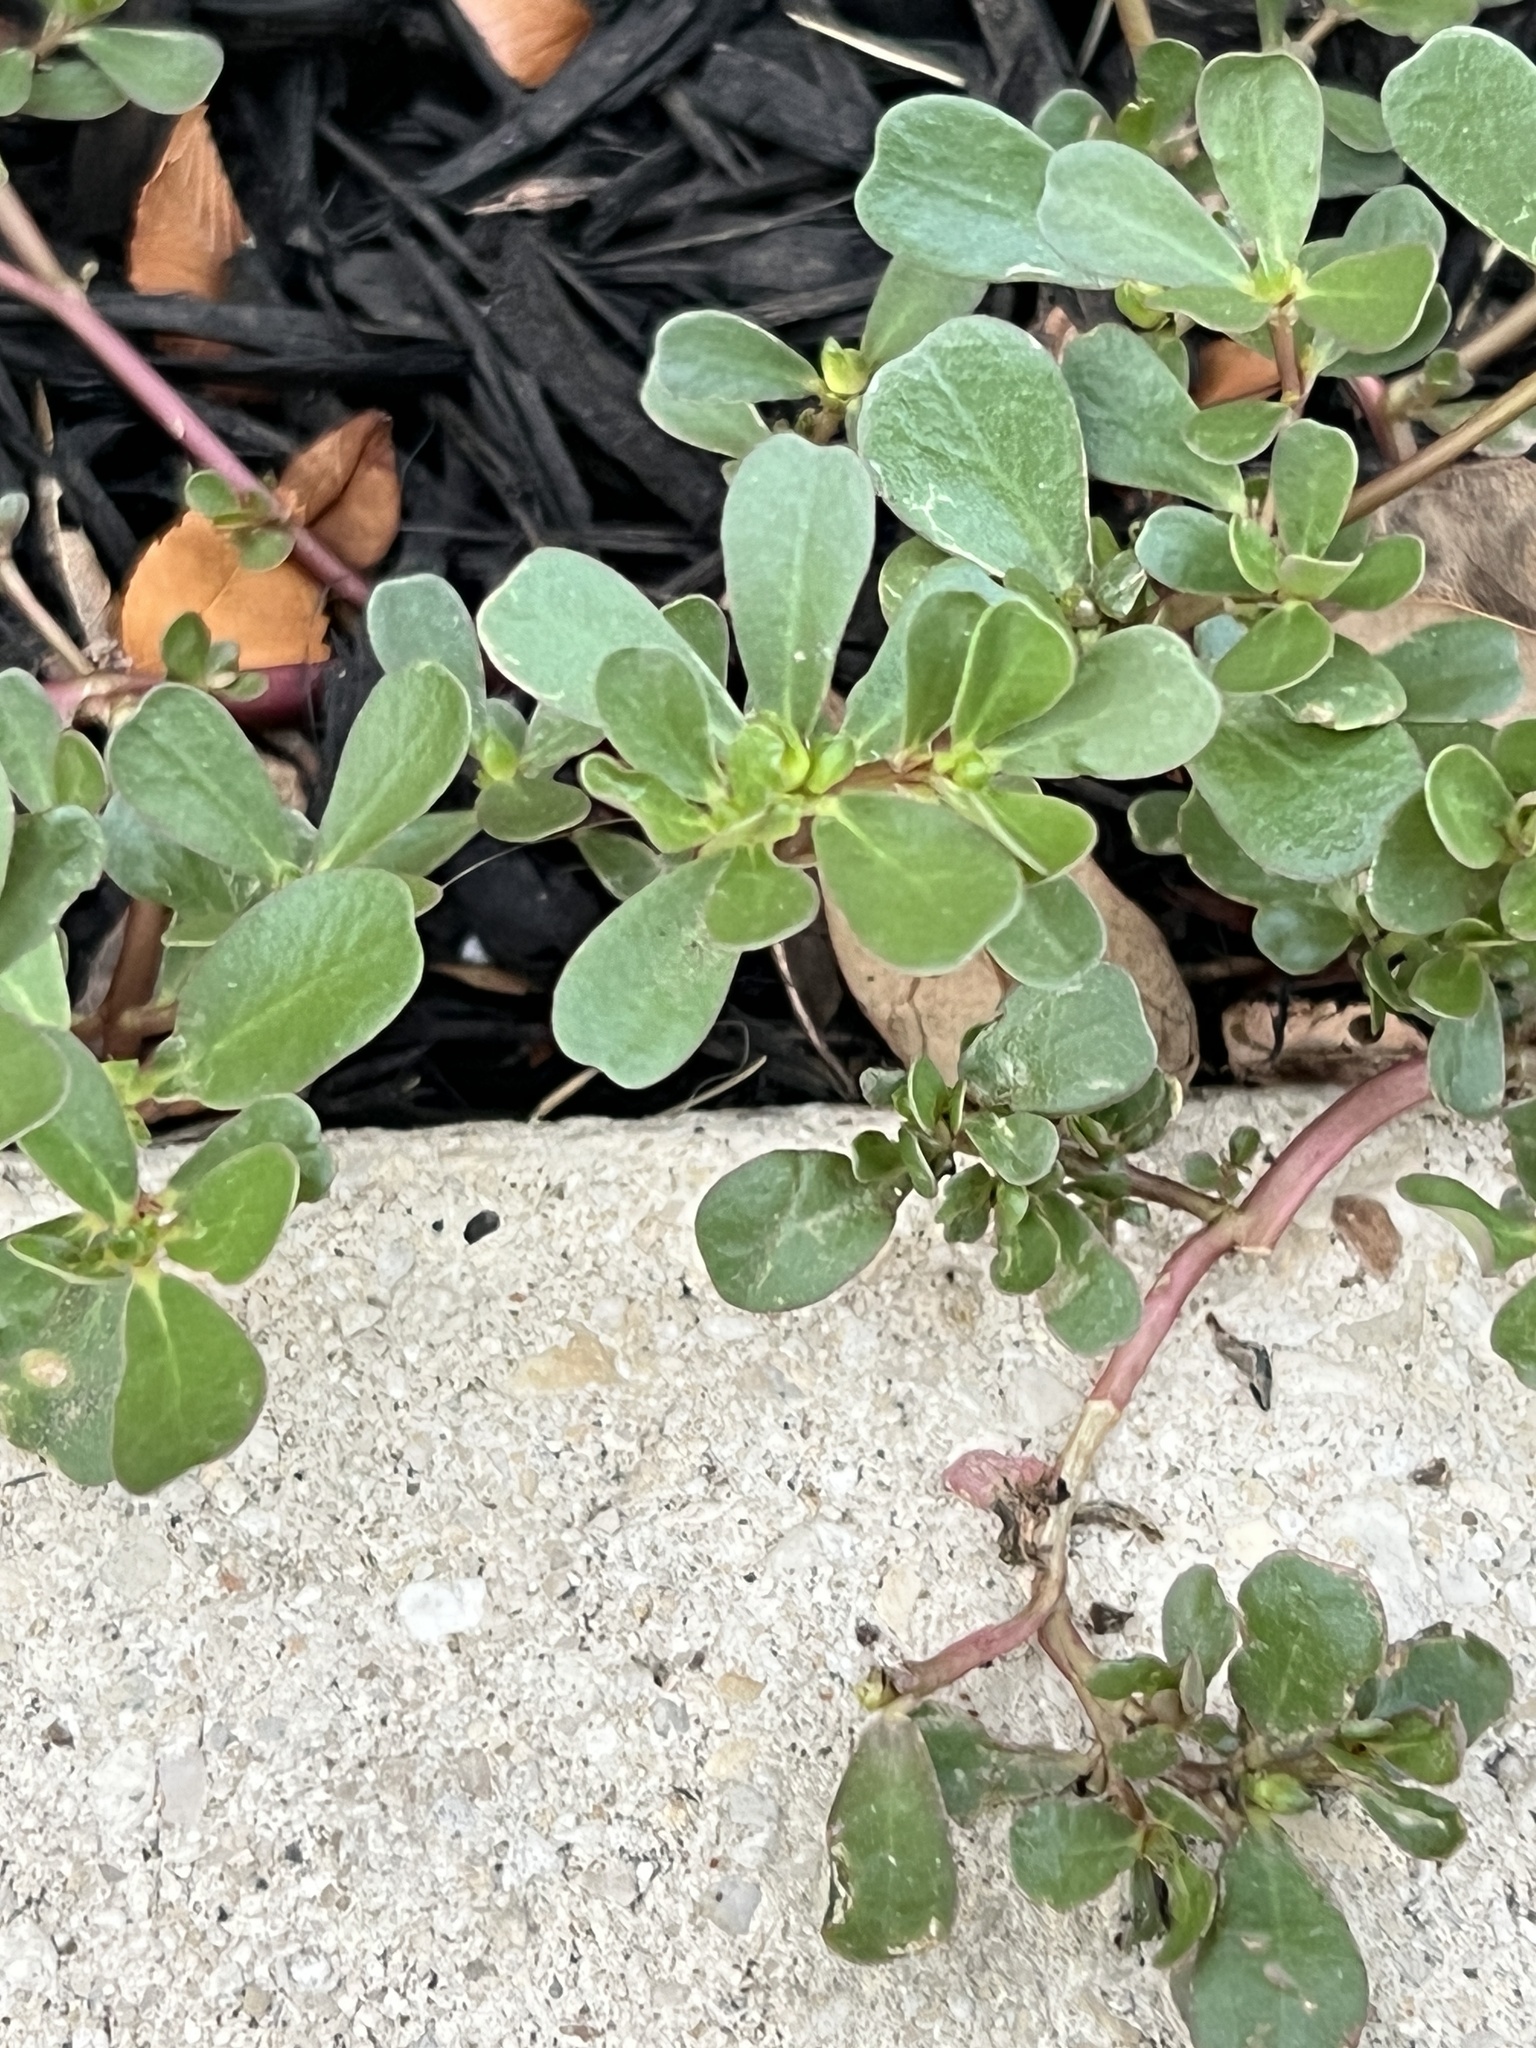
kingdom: Plantae
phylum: Tracheophyta
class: Magnoliopsida
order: Caryophyllales
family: Portulacaceae
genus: Portulaca
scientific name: Portulaca oleracea
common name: Common purslane
